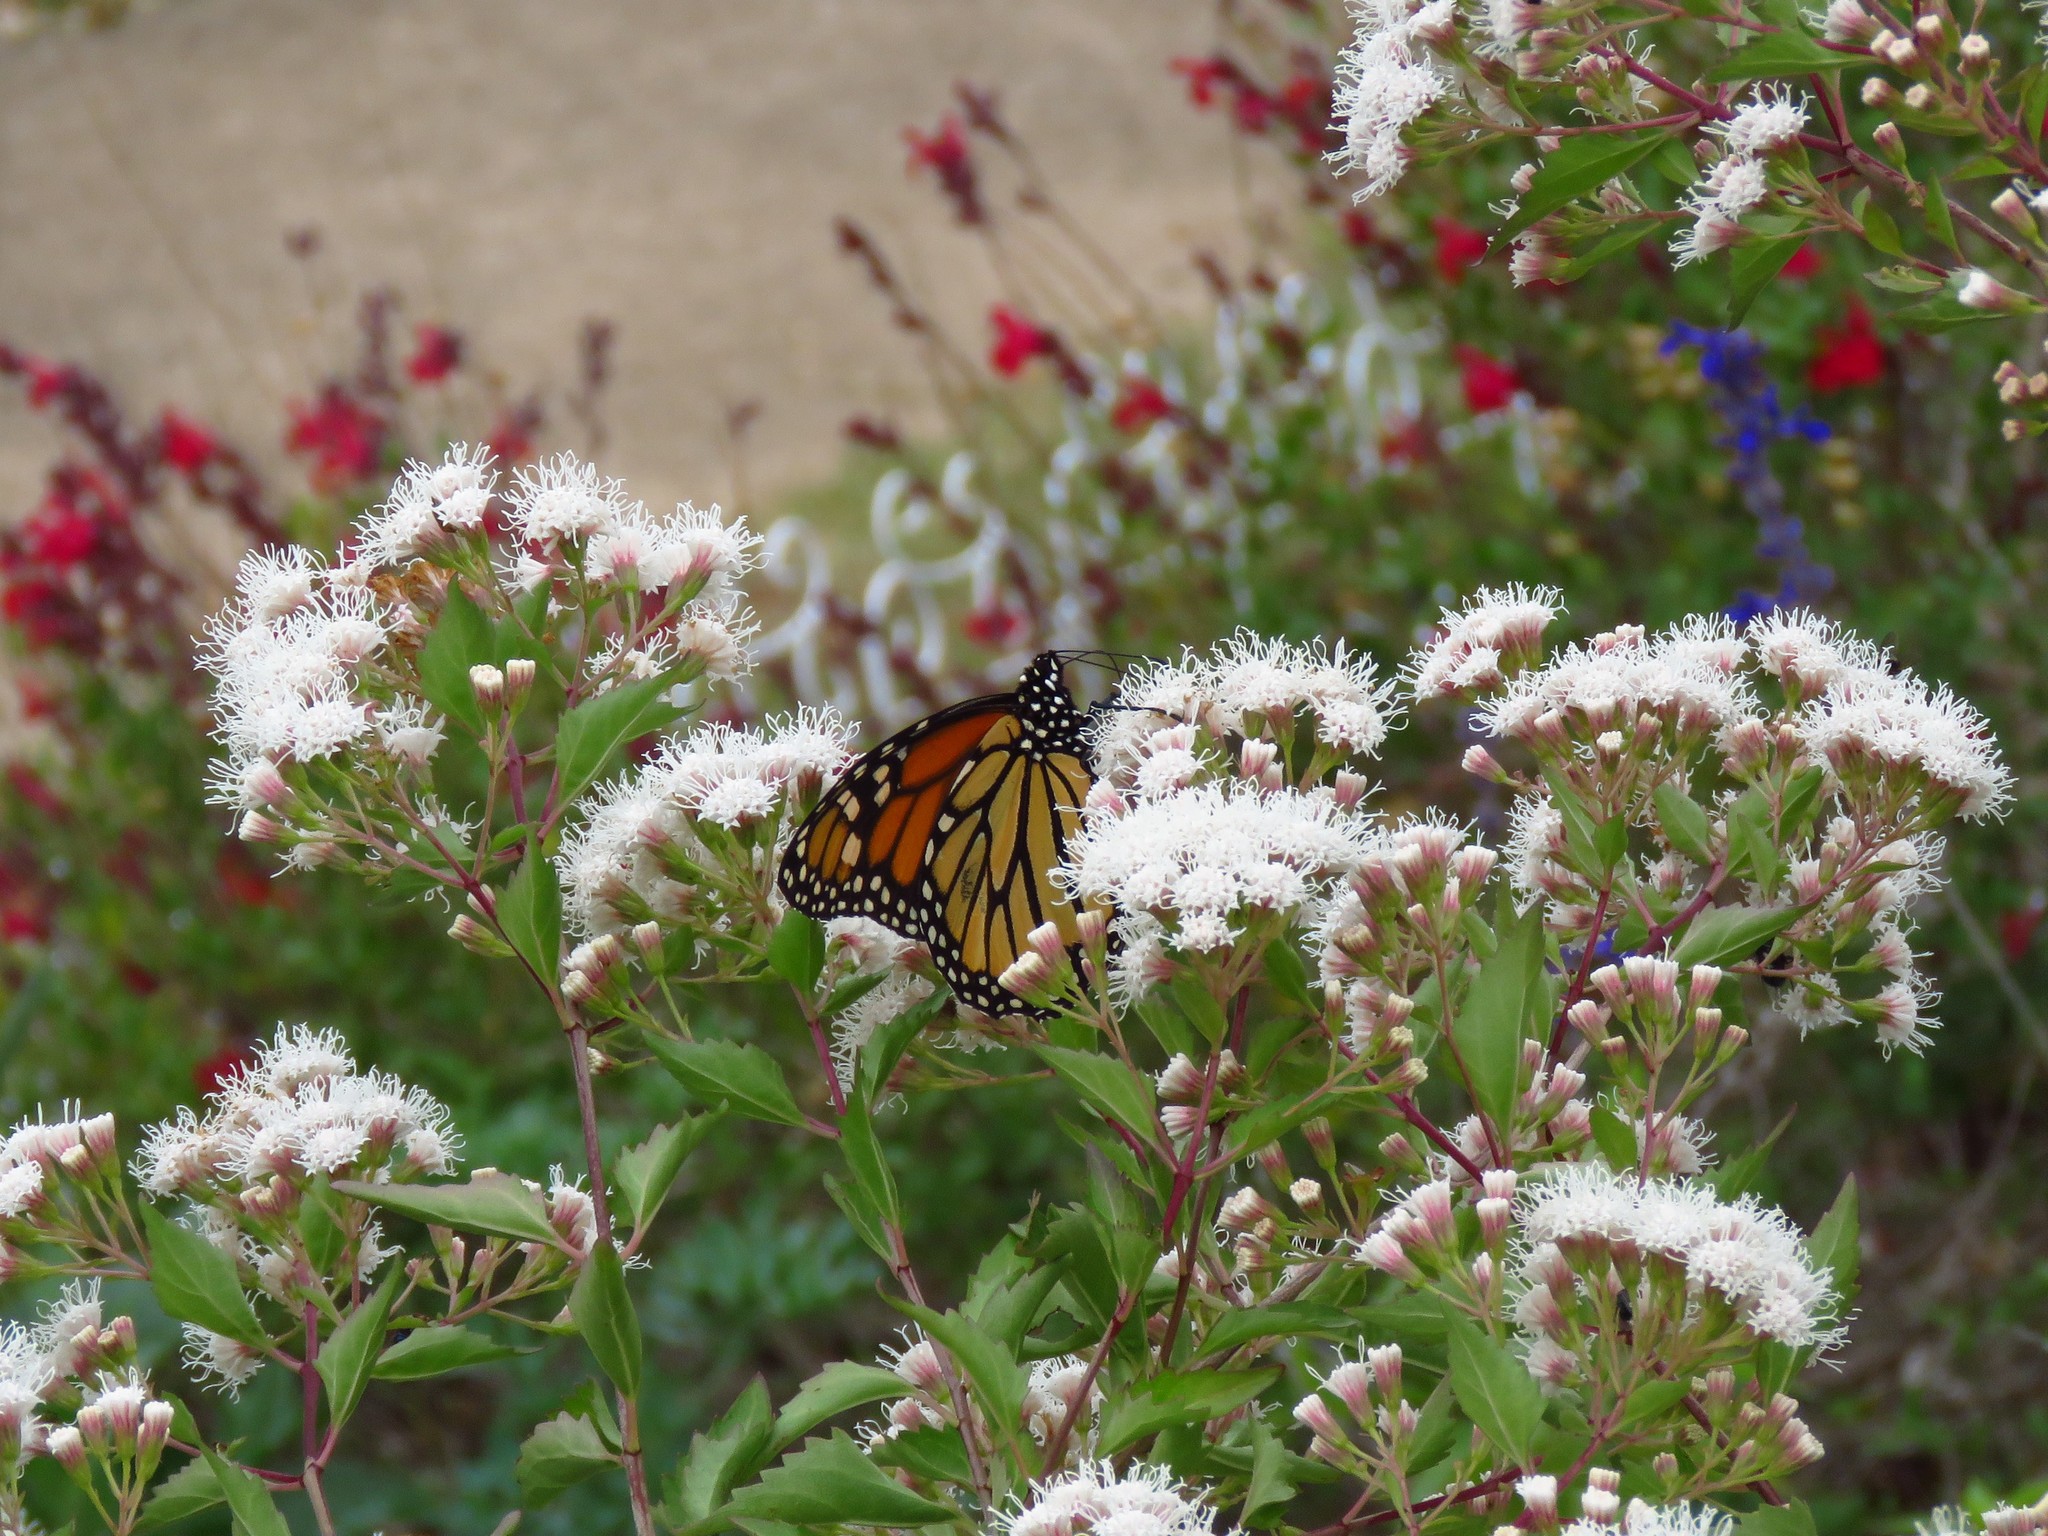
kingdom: Animalia
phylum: Arthropoda
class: Insecta
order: Lepidoptera
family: Nymphalidae
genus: Danaus
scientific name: Danaus plexippus
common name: Monarch
